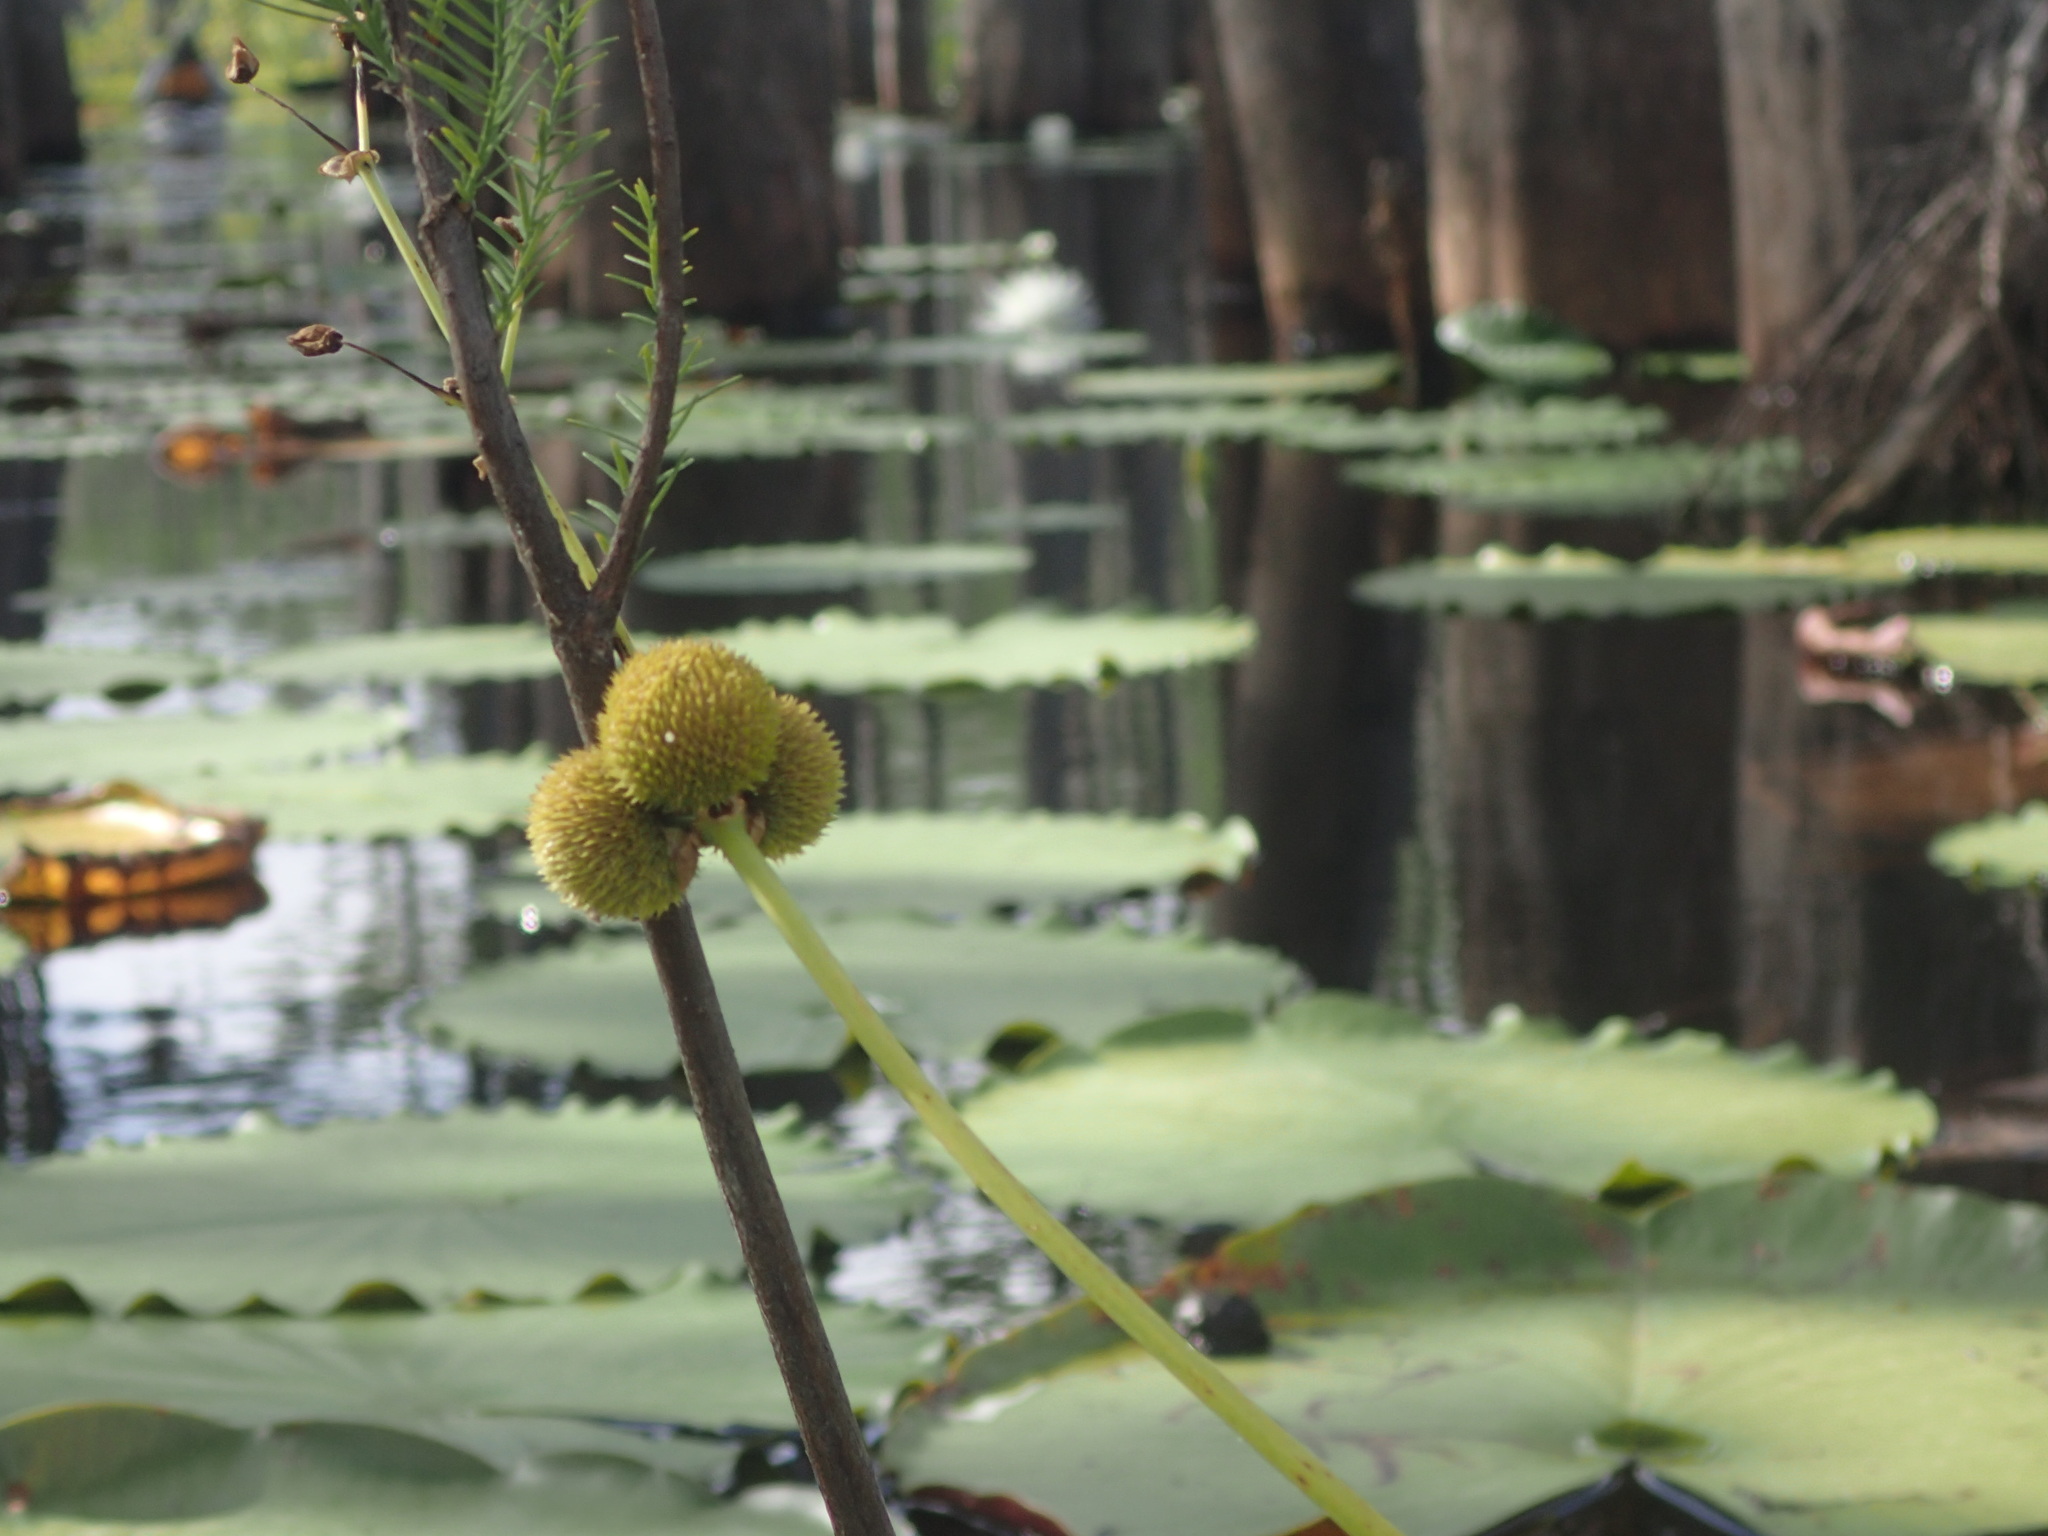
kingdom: Plantae
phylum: Tracheophyta
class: Liliopsida
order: Alismatales
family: Alismataceae
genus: Sagittaria
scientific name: Sagittaria engelmanniana
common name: Acid-water arrowhead
